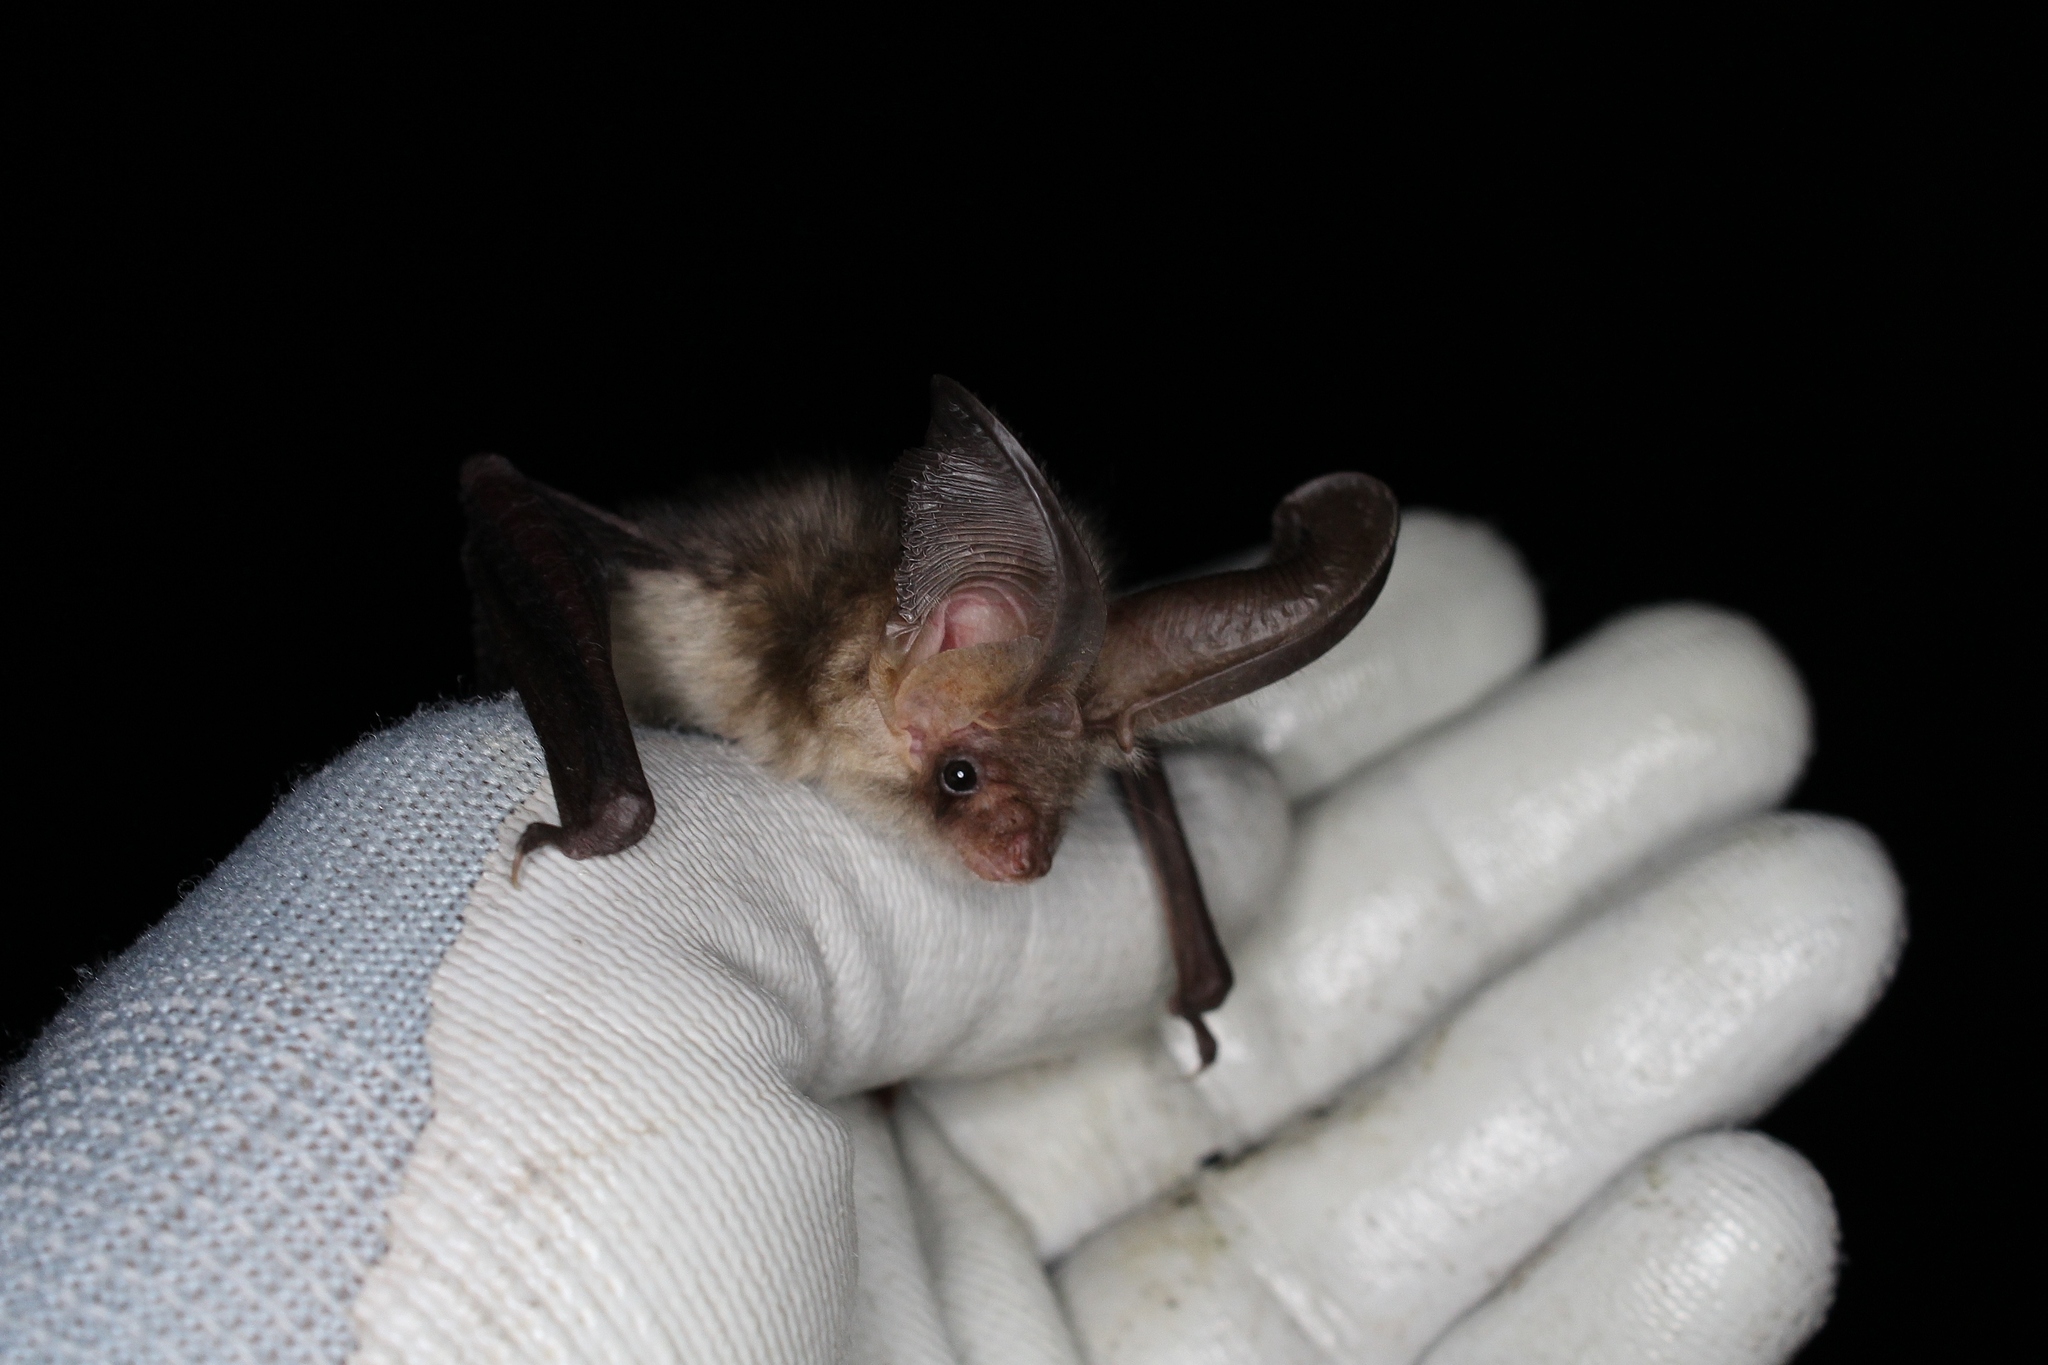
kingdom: Animalia
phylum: Chordata
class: Mammalia
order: Chiroptera
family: Vespertilionidae
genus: Plecotus
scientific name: Plecotus auritus
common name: Brown long-eared bat
